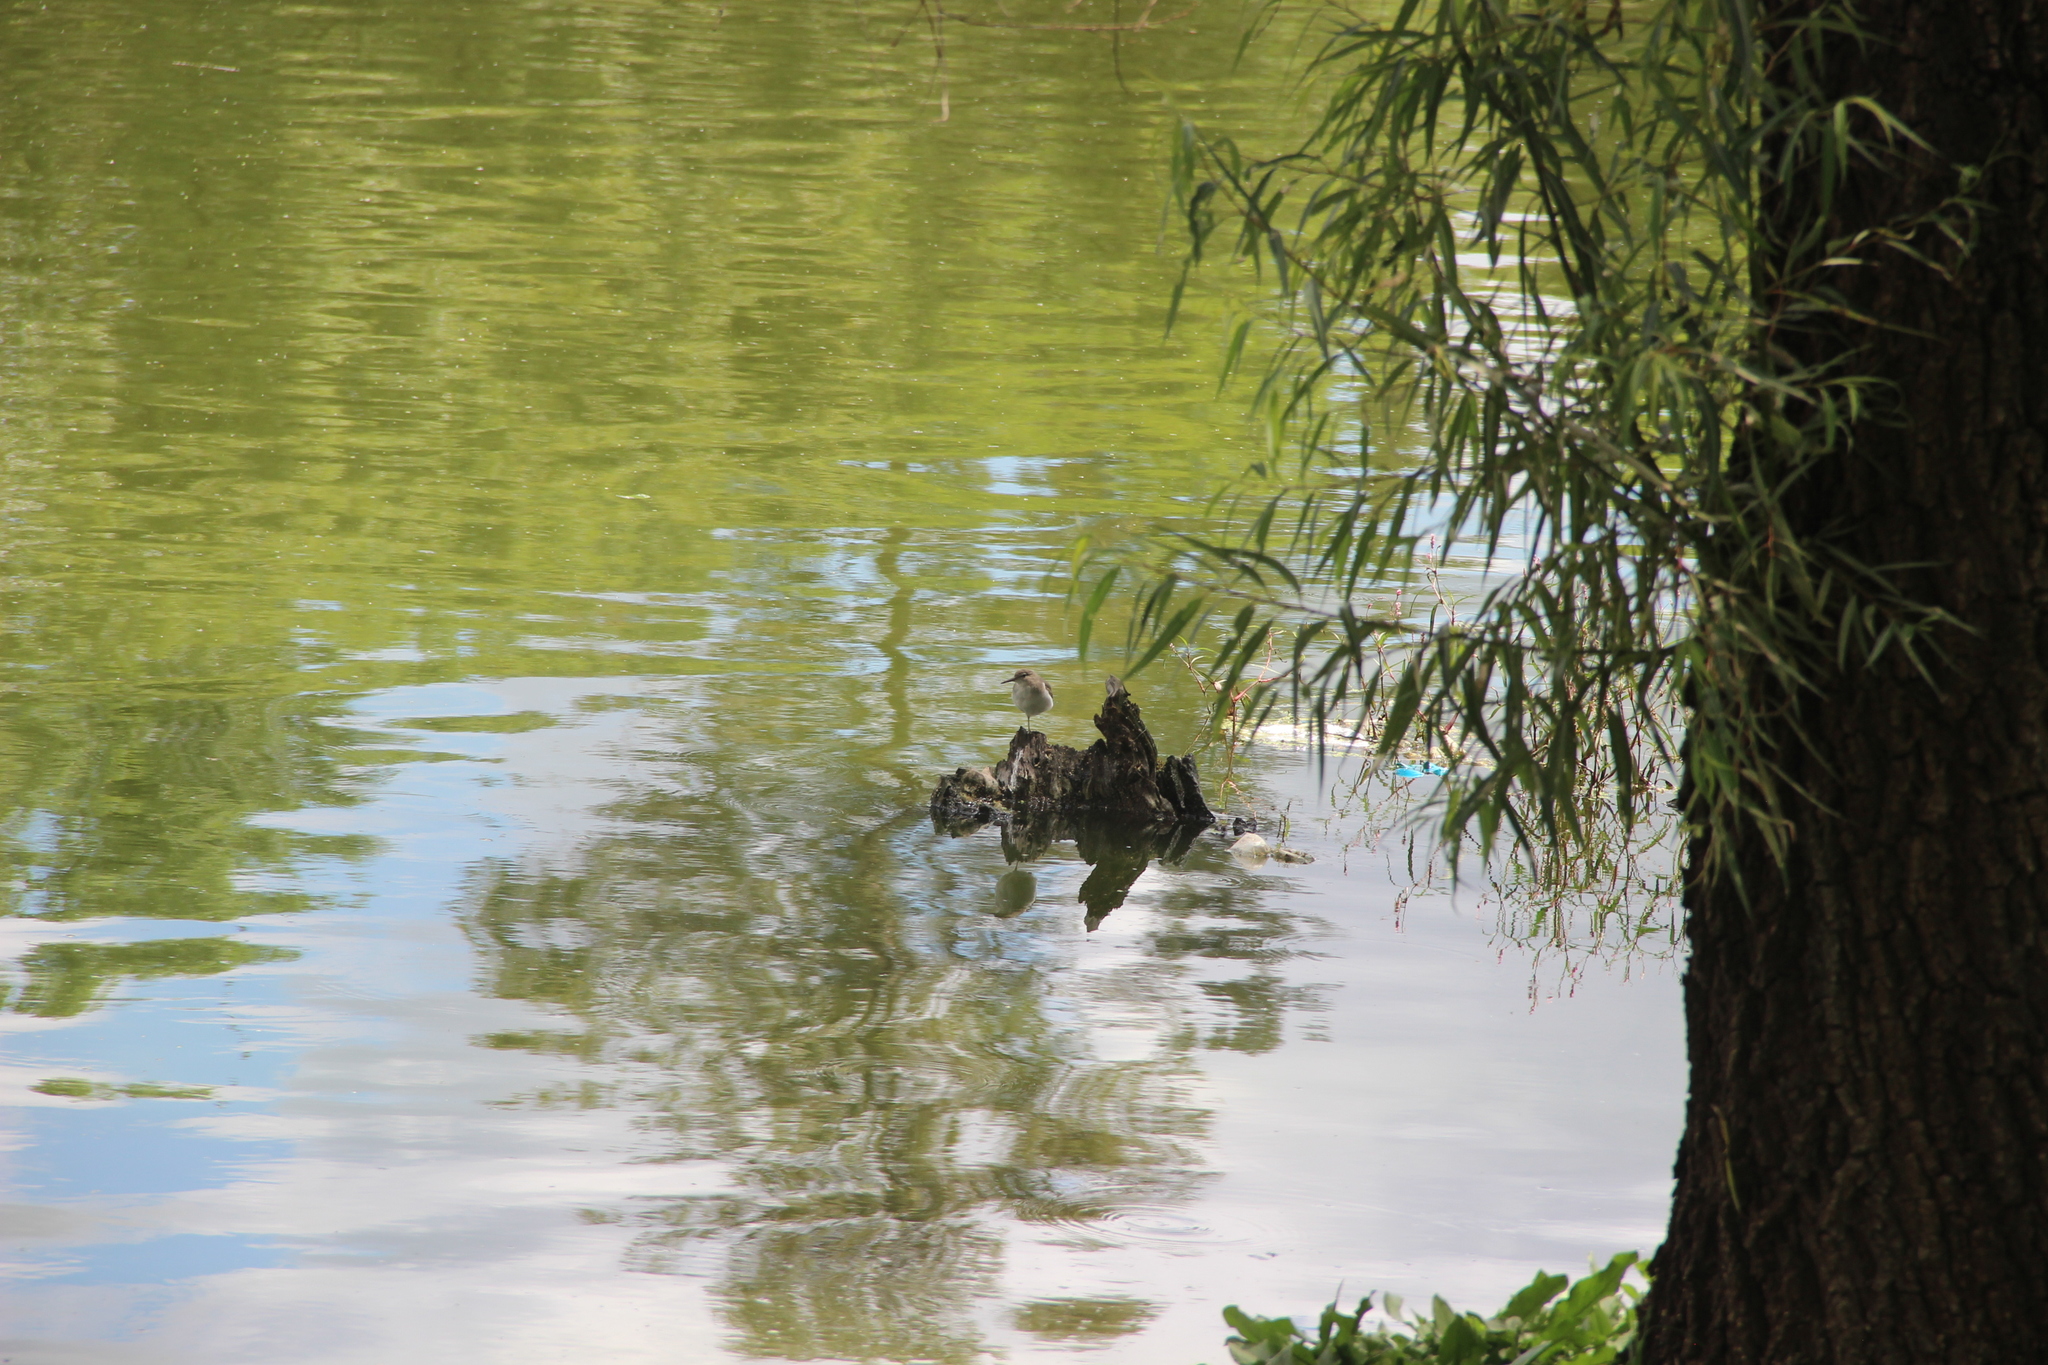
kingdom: Animalia
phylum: Chordata
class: Aves
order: Charadriiformes
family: Scolopacidae
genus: Actitis
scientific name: Actitis macularius
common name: Spotted sandpiper
